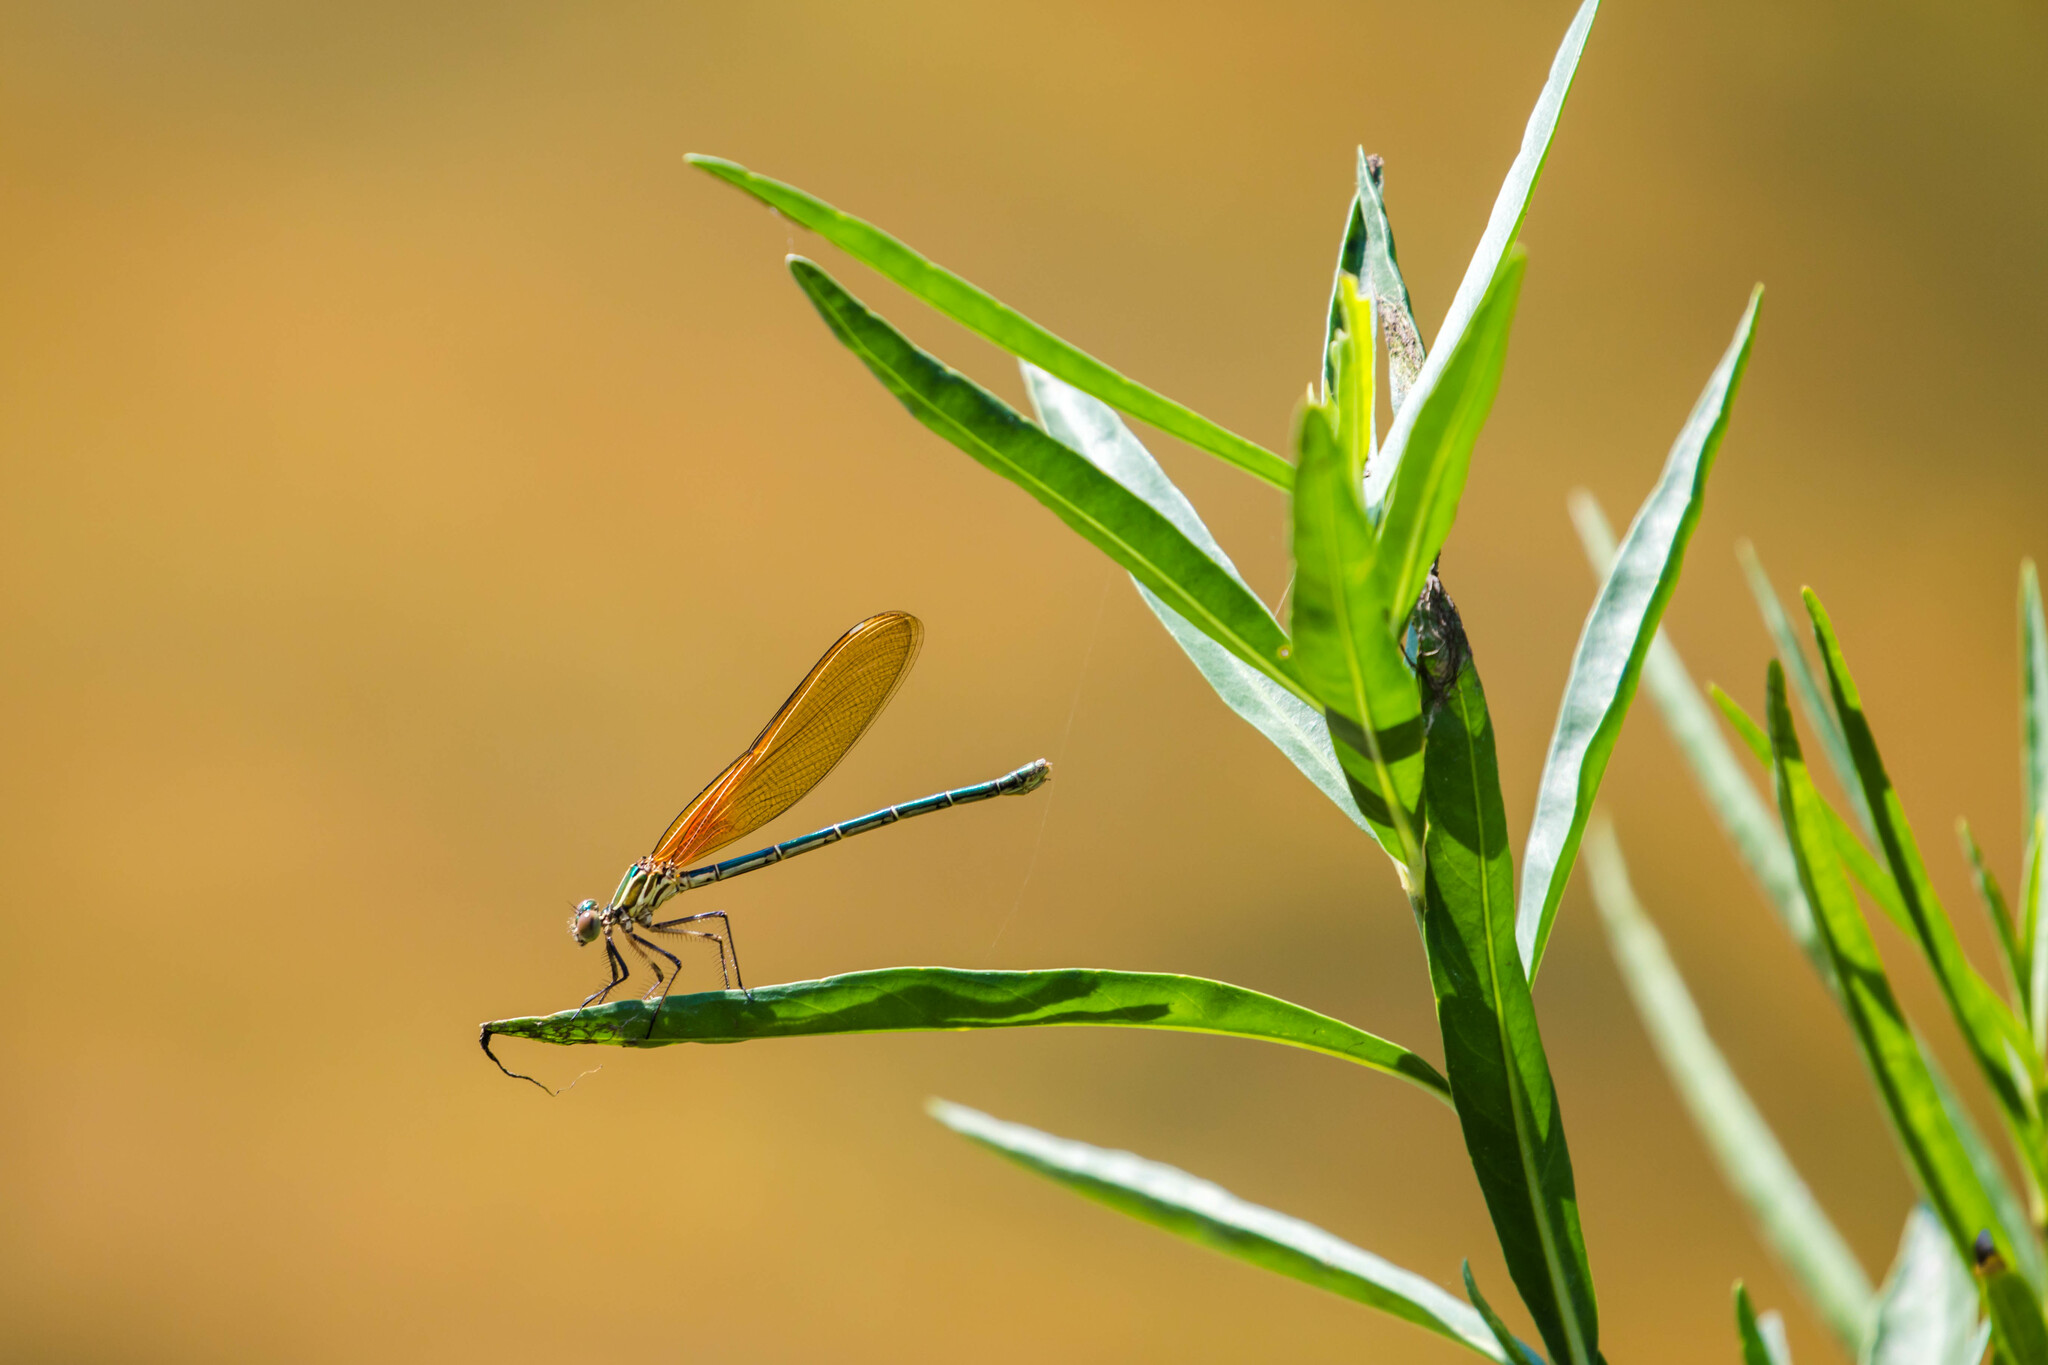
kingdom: Animalia
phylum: Arthropoda
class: Insecta
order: Odonata
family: Calopterygidae
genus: Hetaerina
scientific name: Hetaerina americana
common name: American rubyspot
